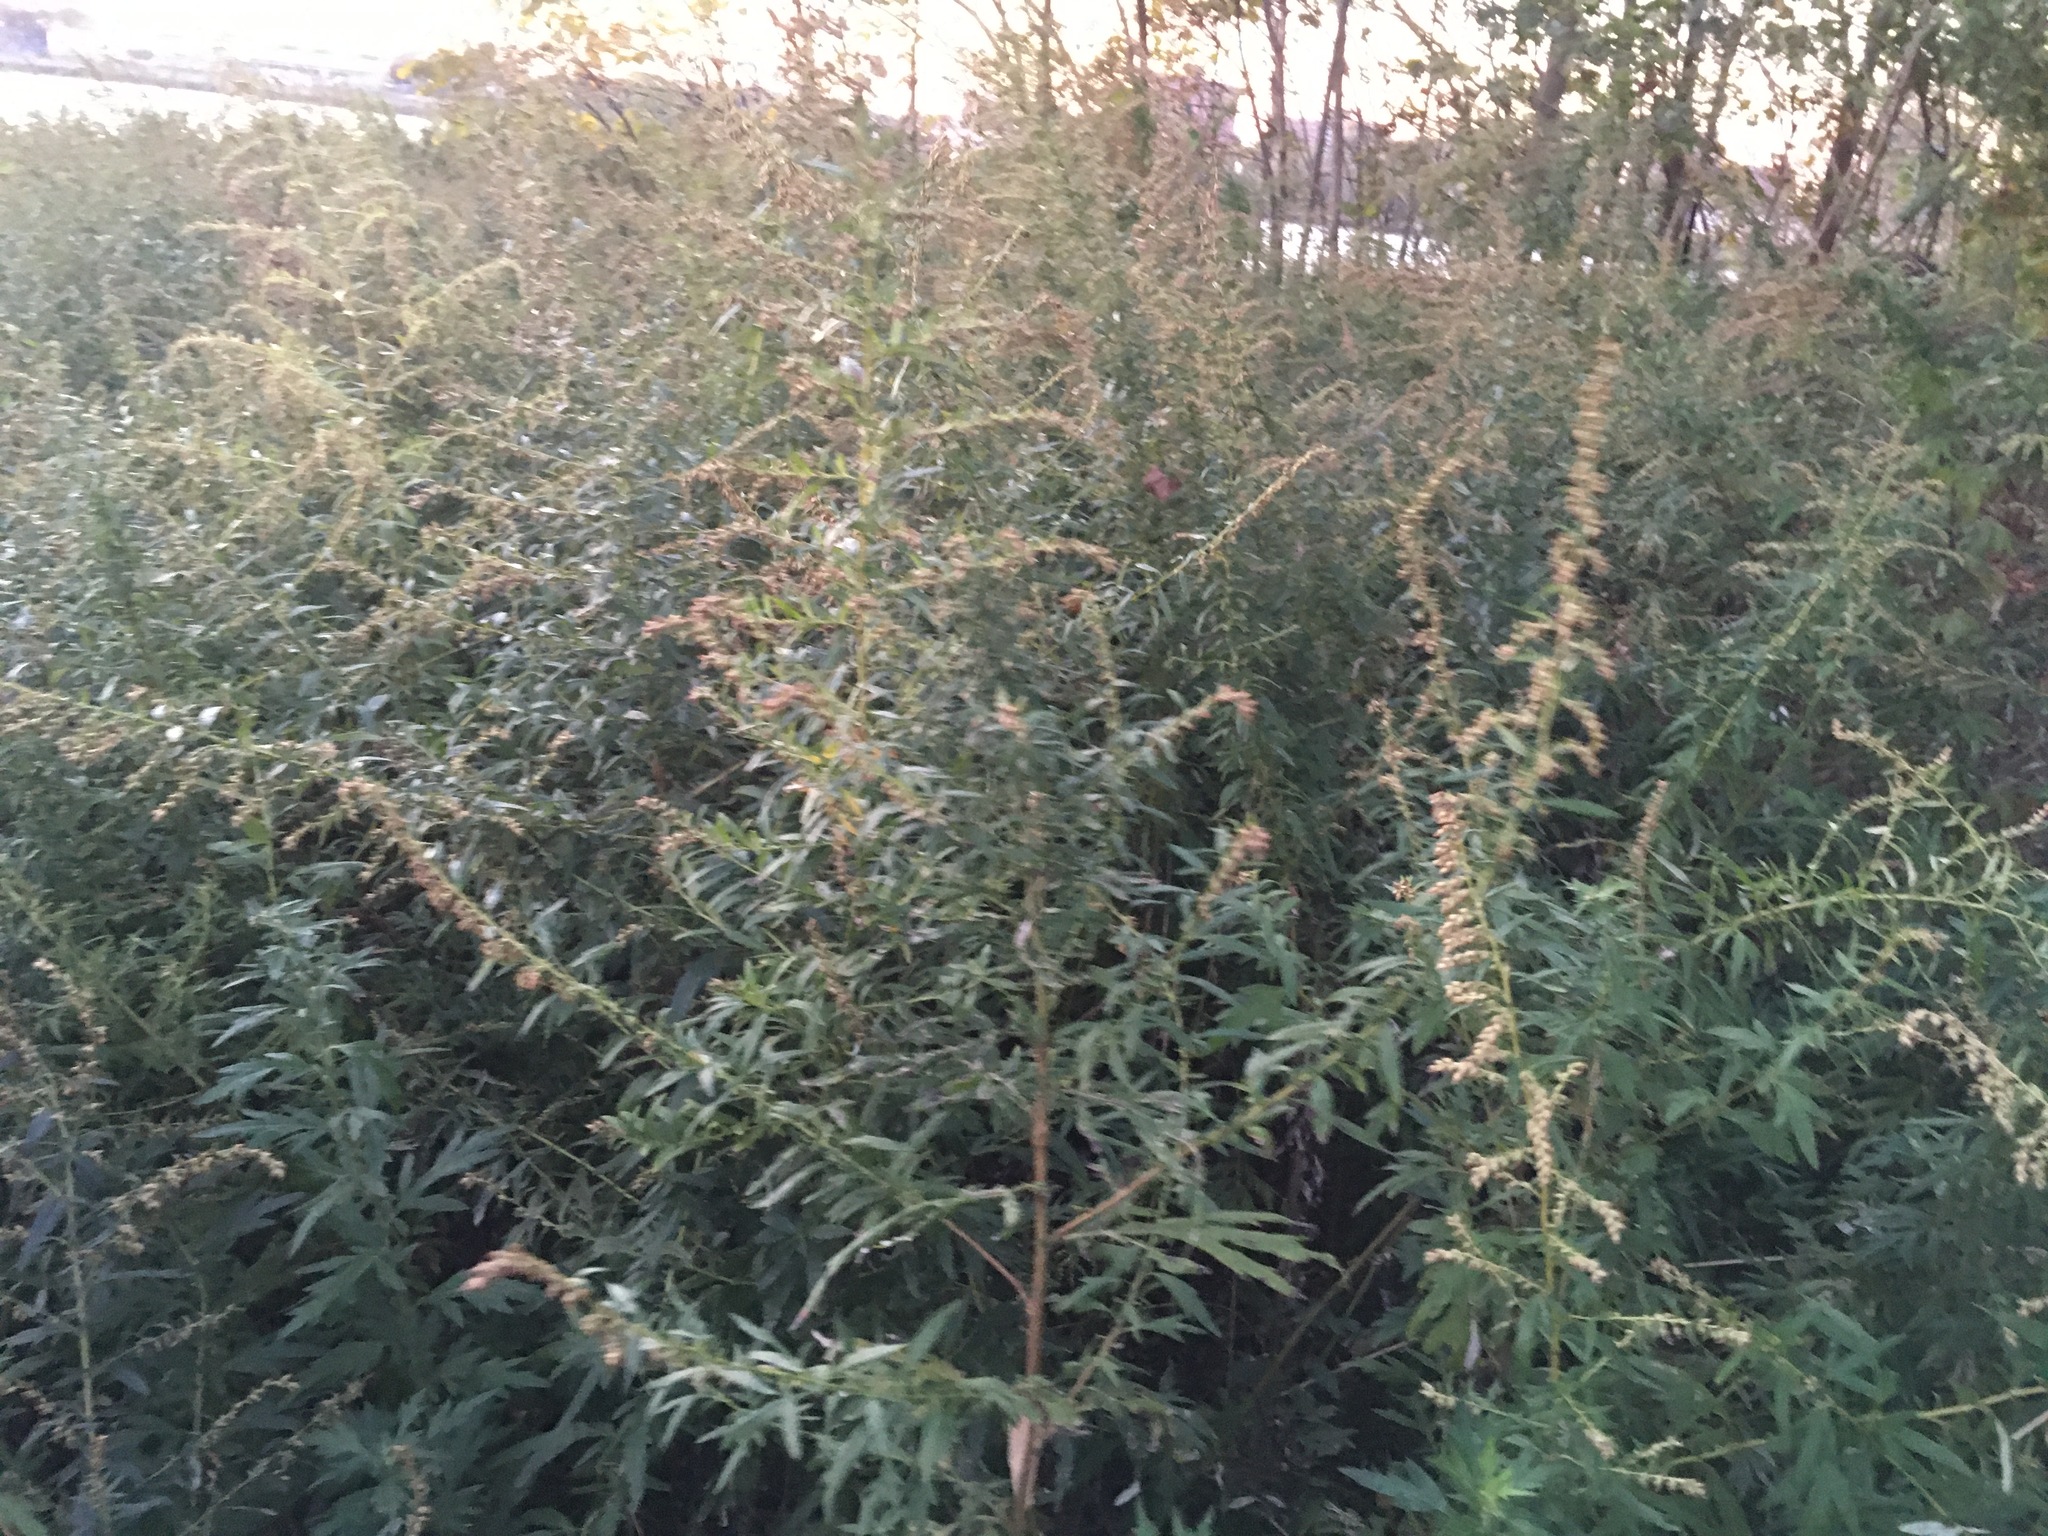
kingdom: Plantae
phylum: Tracheophyta
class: Magnoliopsida
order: Asterales
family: Asteraceae
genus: Artemisia
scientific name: Artemisia vulgaris
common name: Mugwort
